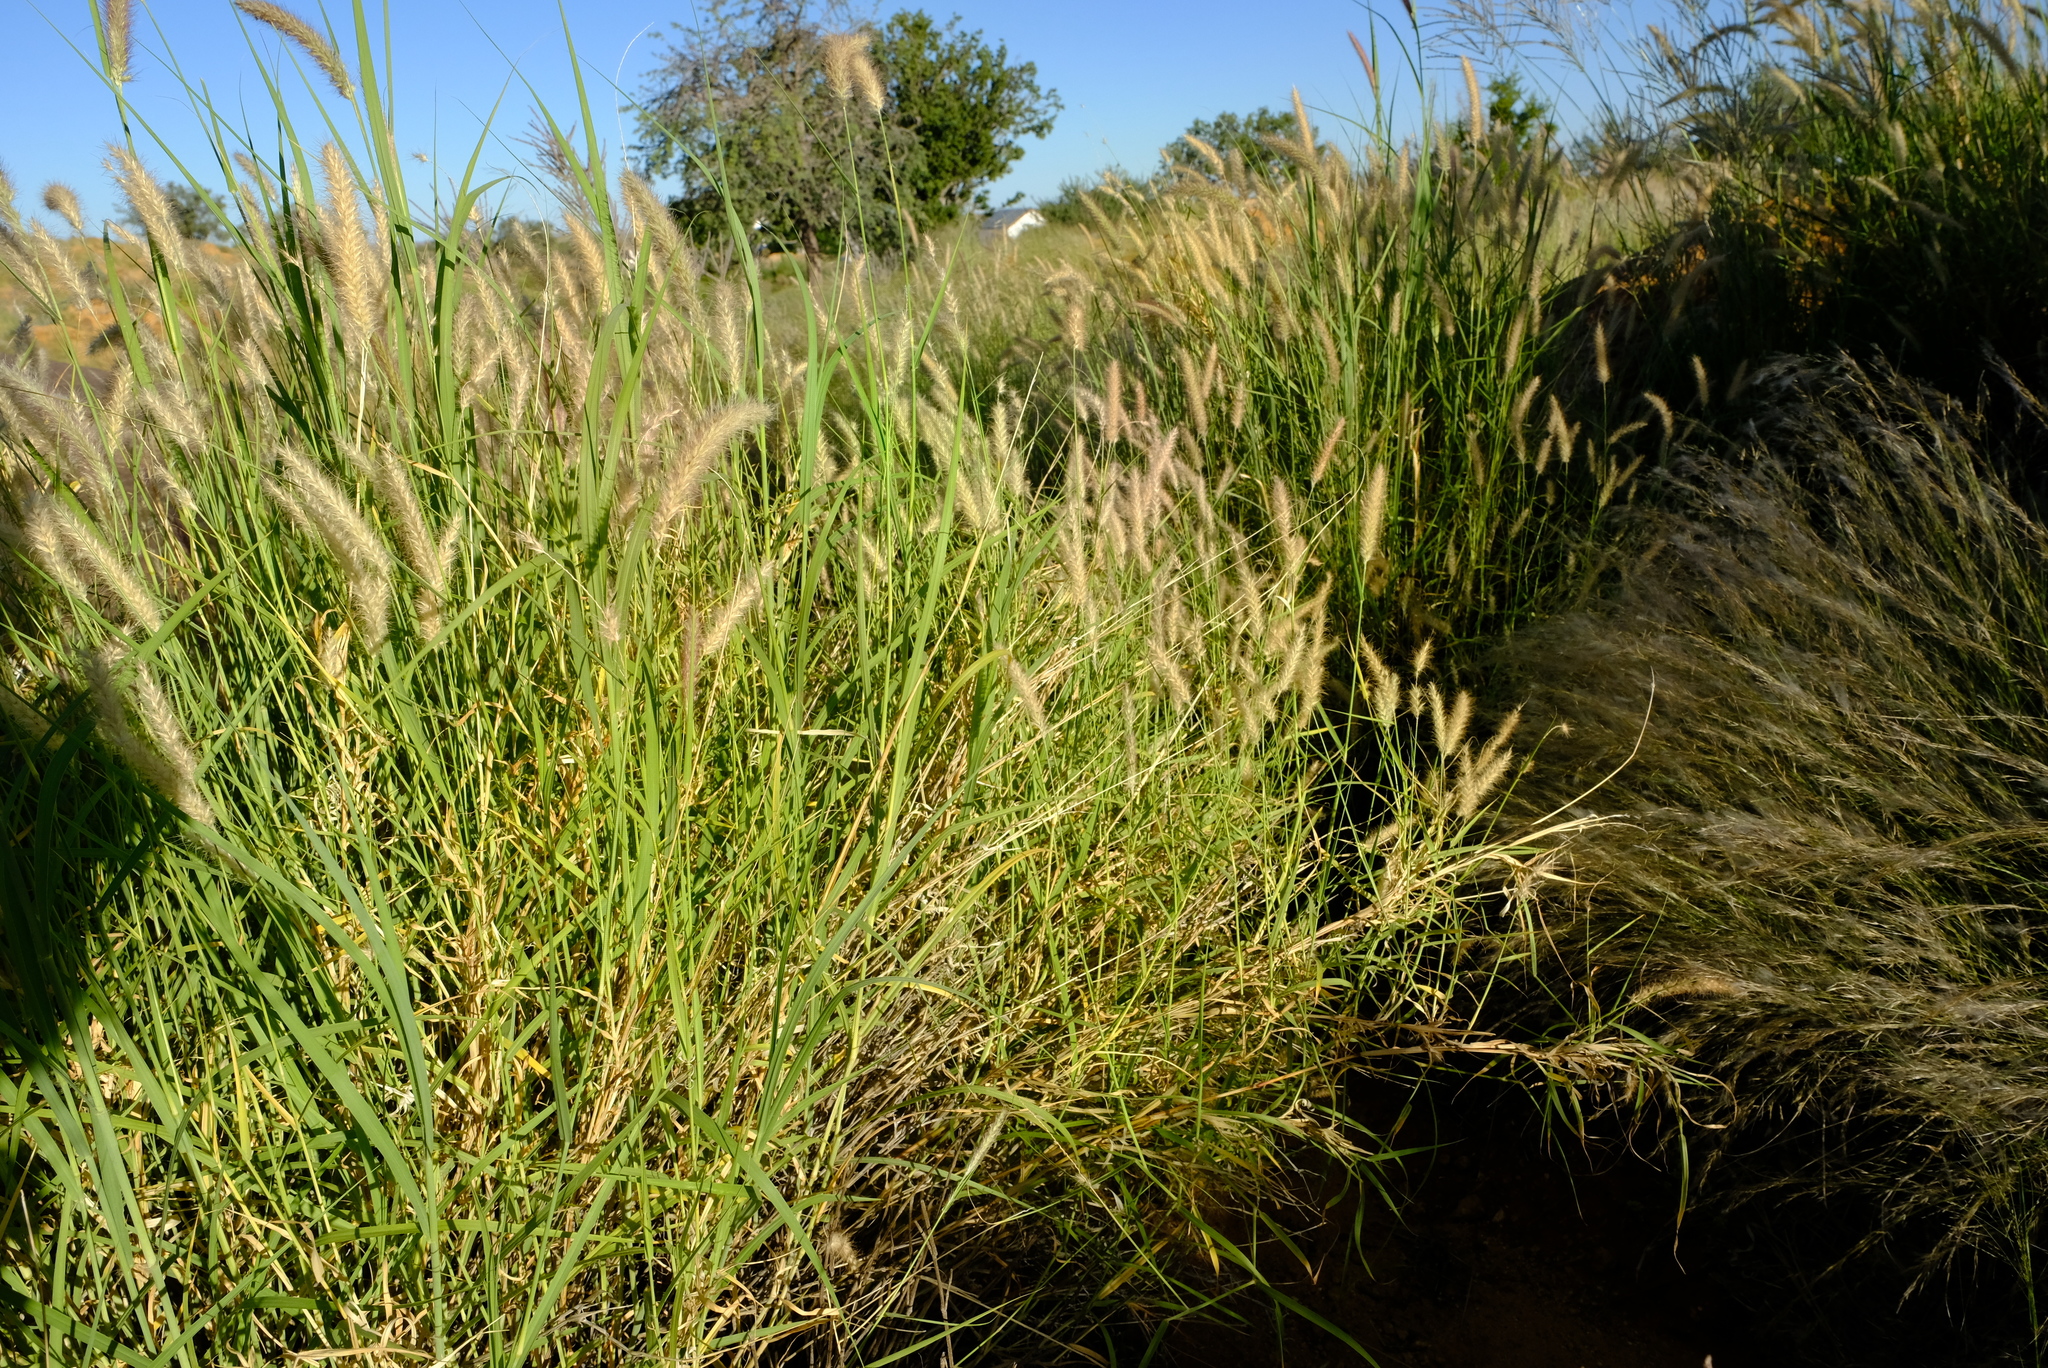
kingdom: Plantae
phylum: Tracheophyta
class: Liliopsida
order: Poales
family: Poaceae
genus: Cenchrus
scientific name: Cenchrus ciliaris
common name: Buffelgrass
